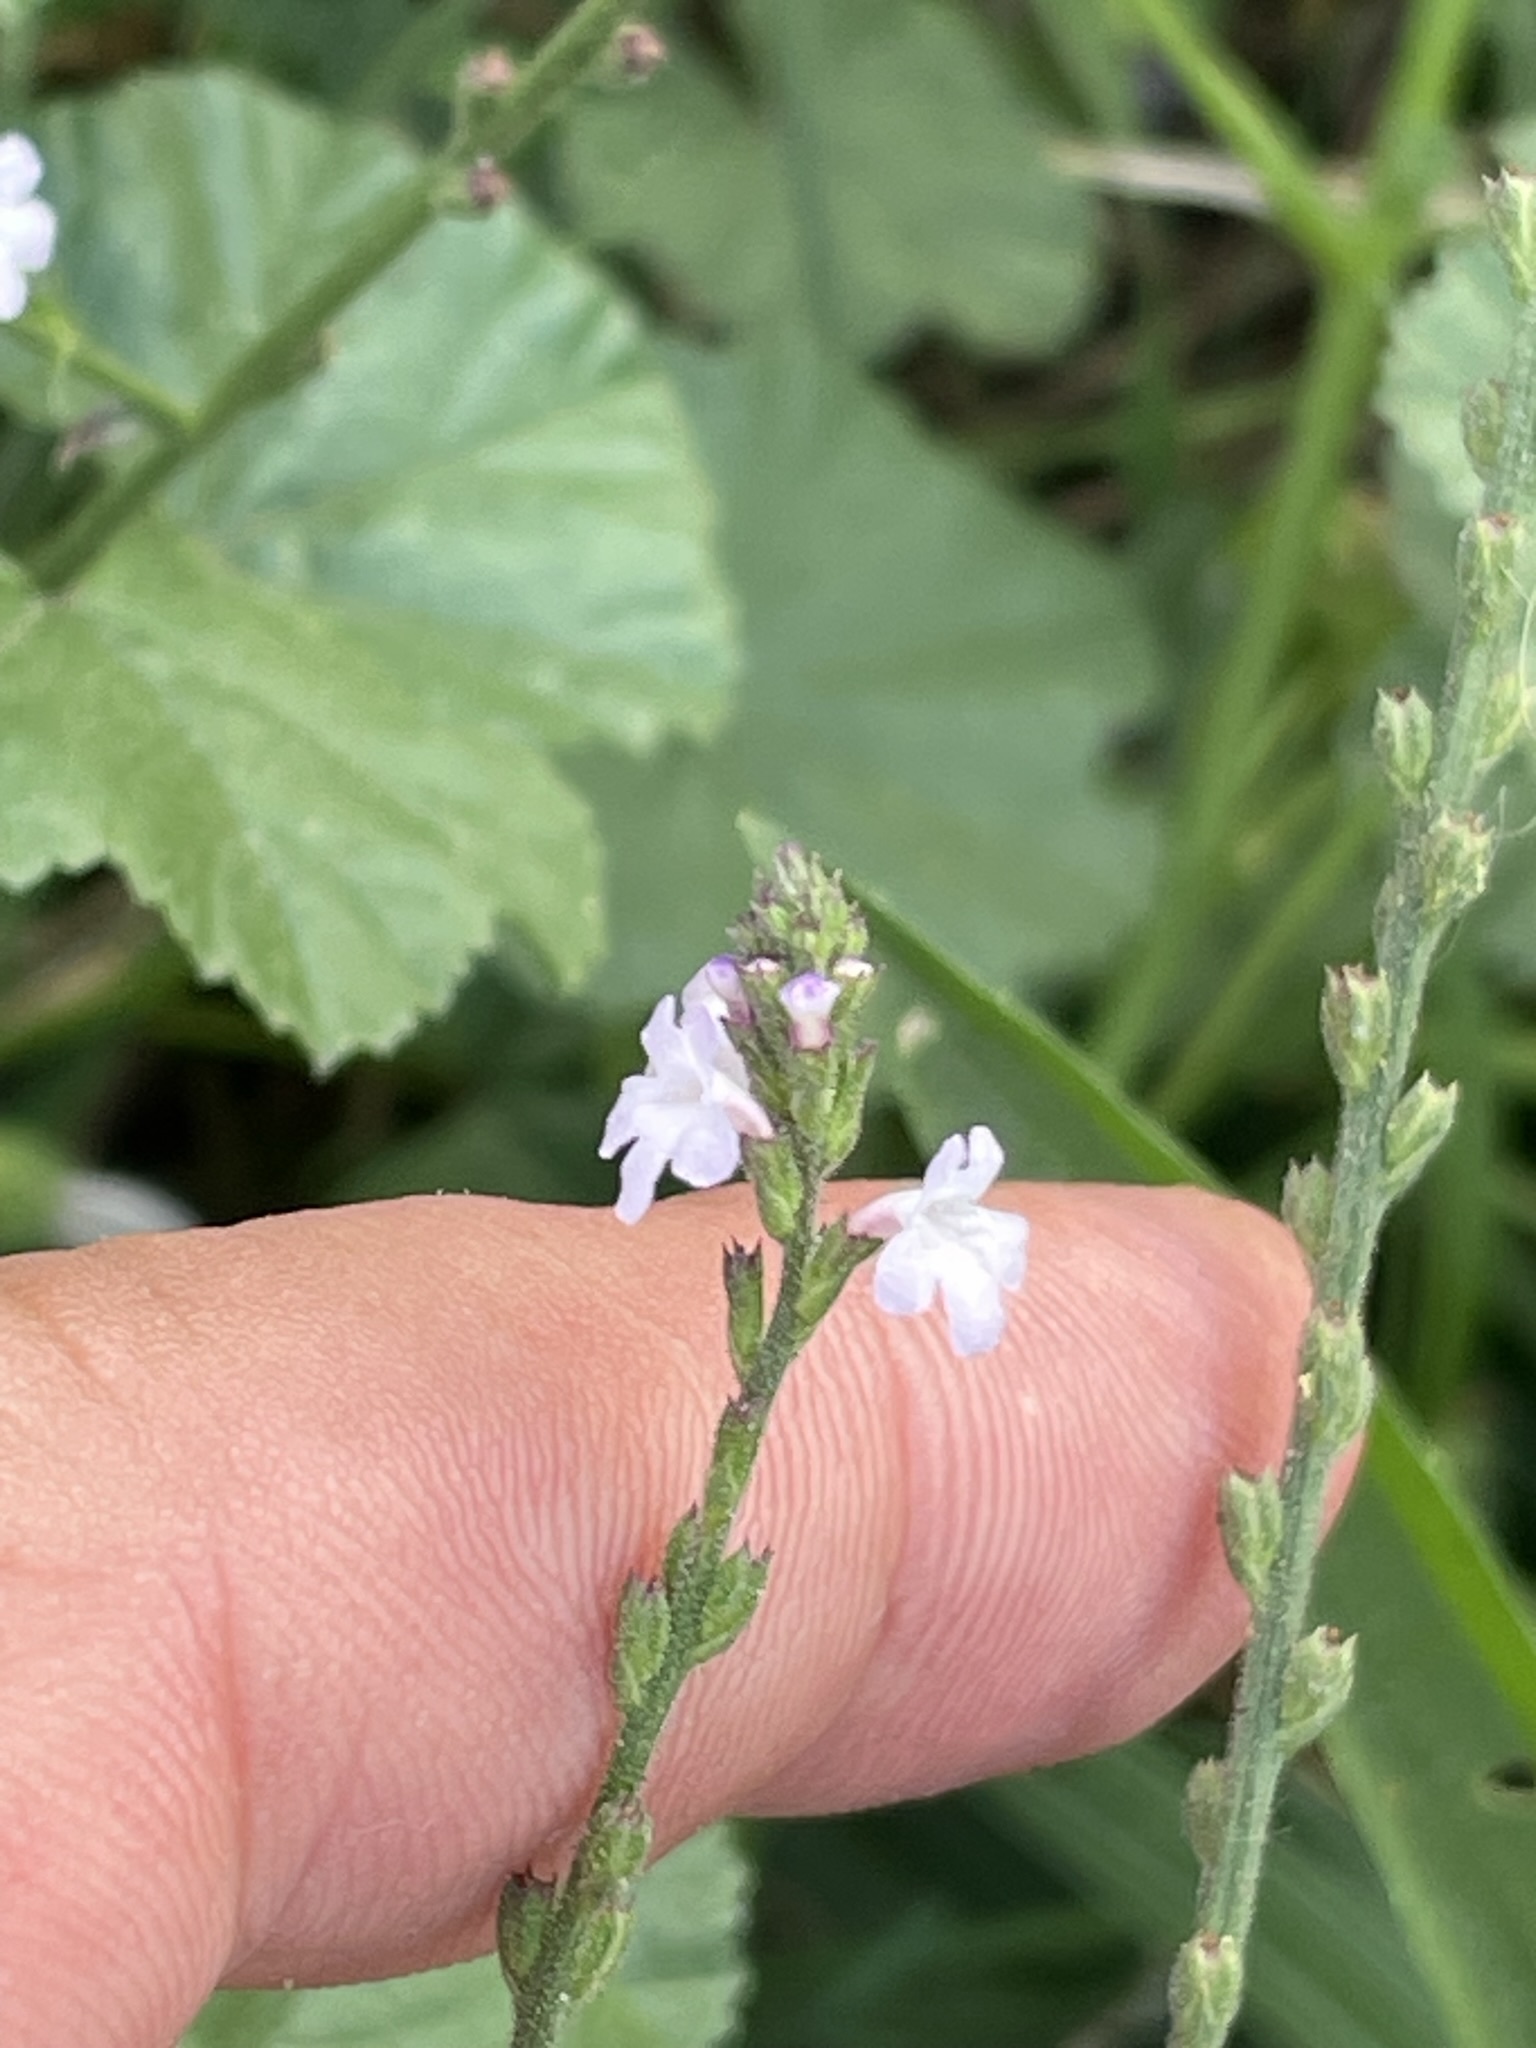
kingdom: Plantae
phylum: Tracheophyta
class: Magnoliopsida
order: Lamiales
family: Verbenaceae
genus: Verbena
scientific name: Verbena officinalis
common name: Vervain
